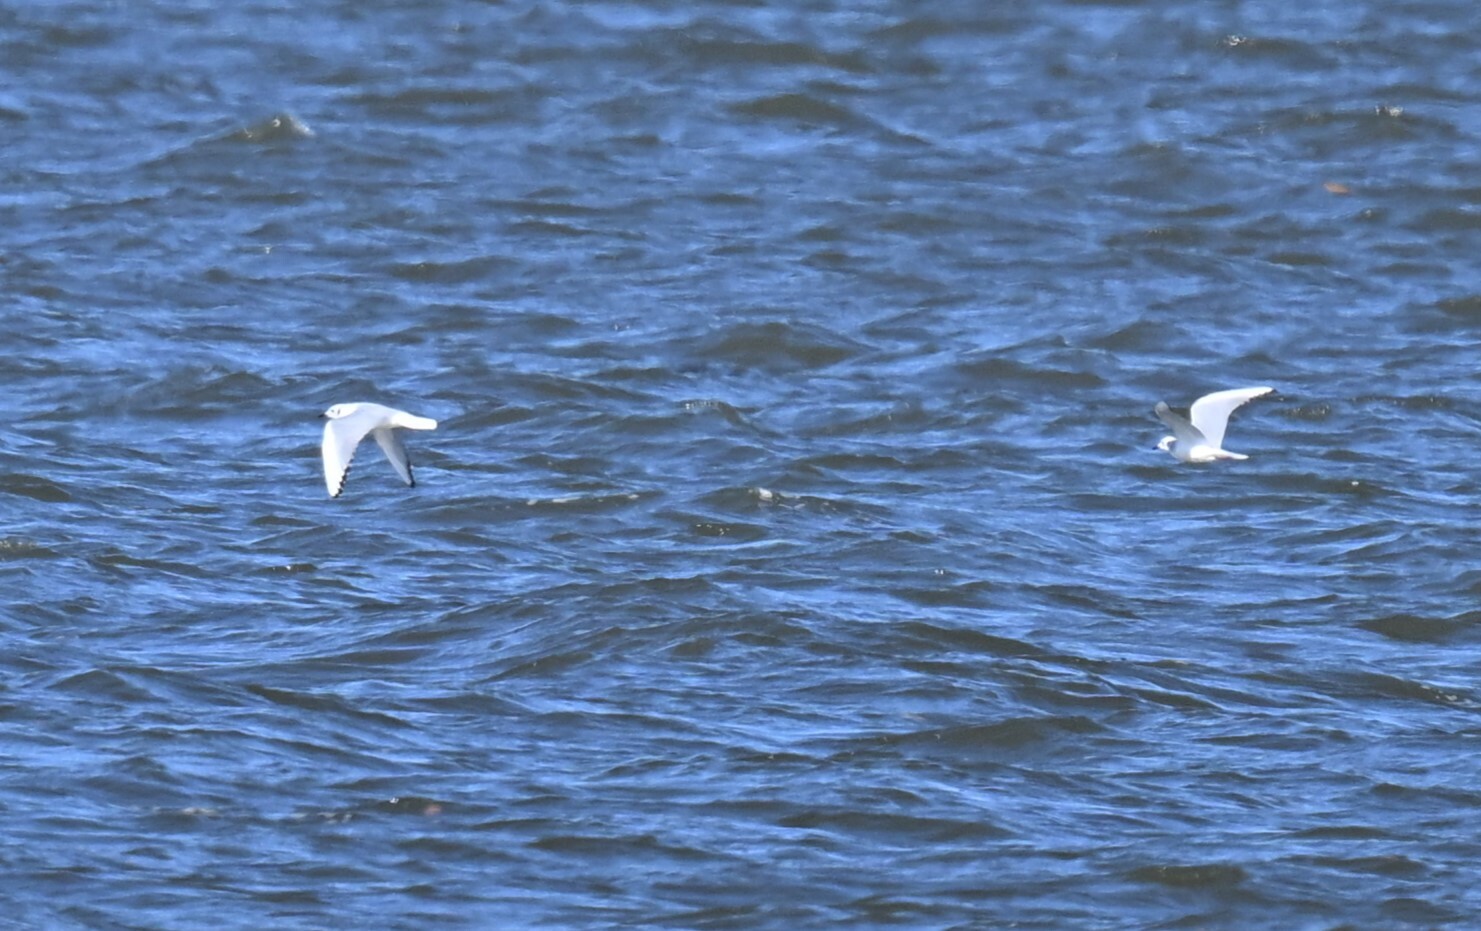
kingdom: Animalia
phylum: Chordata
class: Aves
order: Charadriiformes
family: Laridae
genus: Chroicocephalus
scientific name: Chroicocephalus philadelphia
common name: Bonaparte's gull
